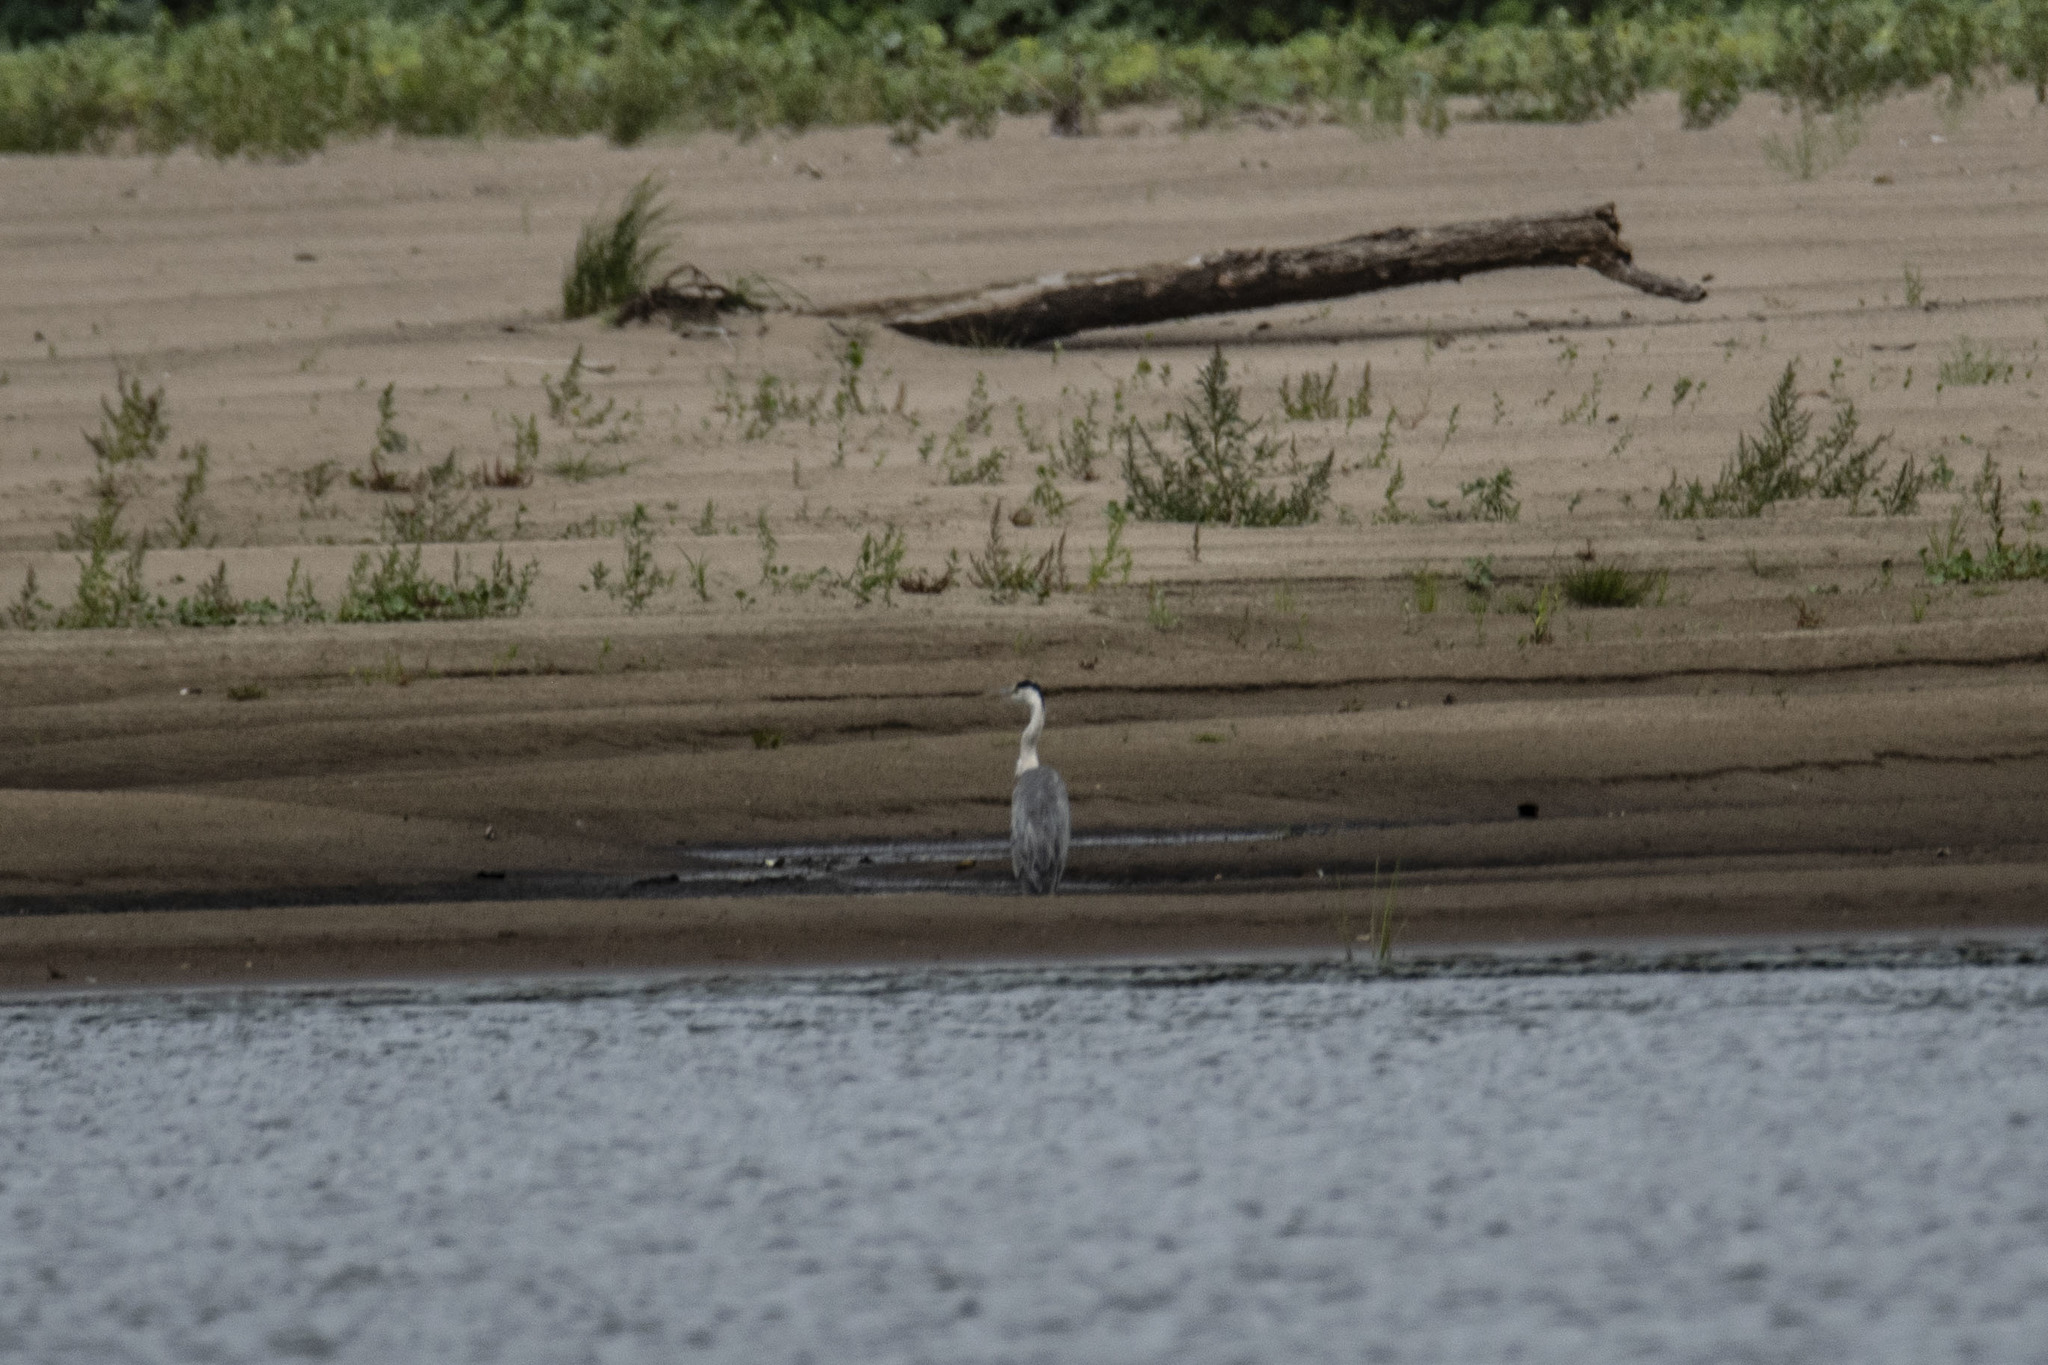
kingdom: Animalia
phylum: Chordata
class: Aves
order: Pelecaniformes
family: Ardeidae
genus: Ardea
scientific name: Ardea cinerea
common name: Grey heron
